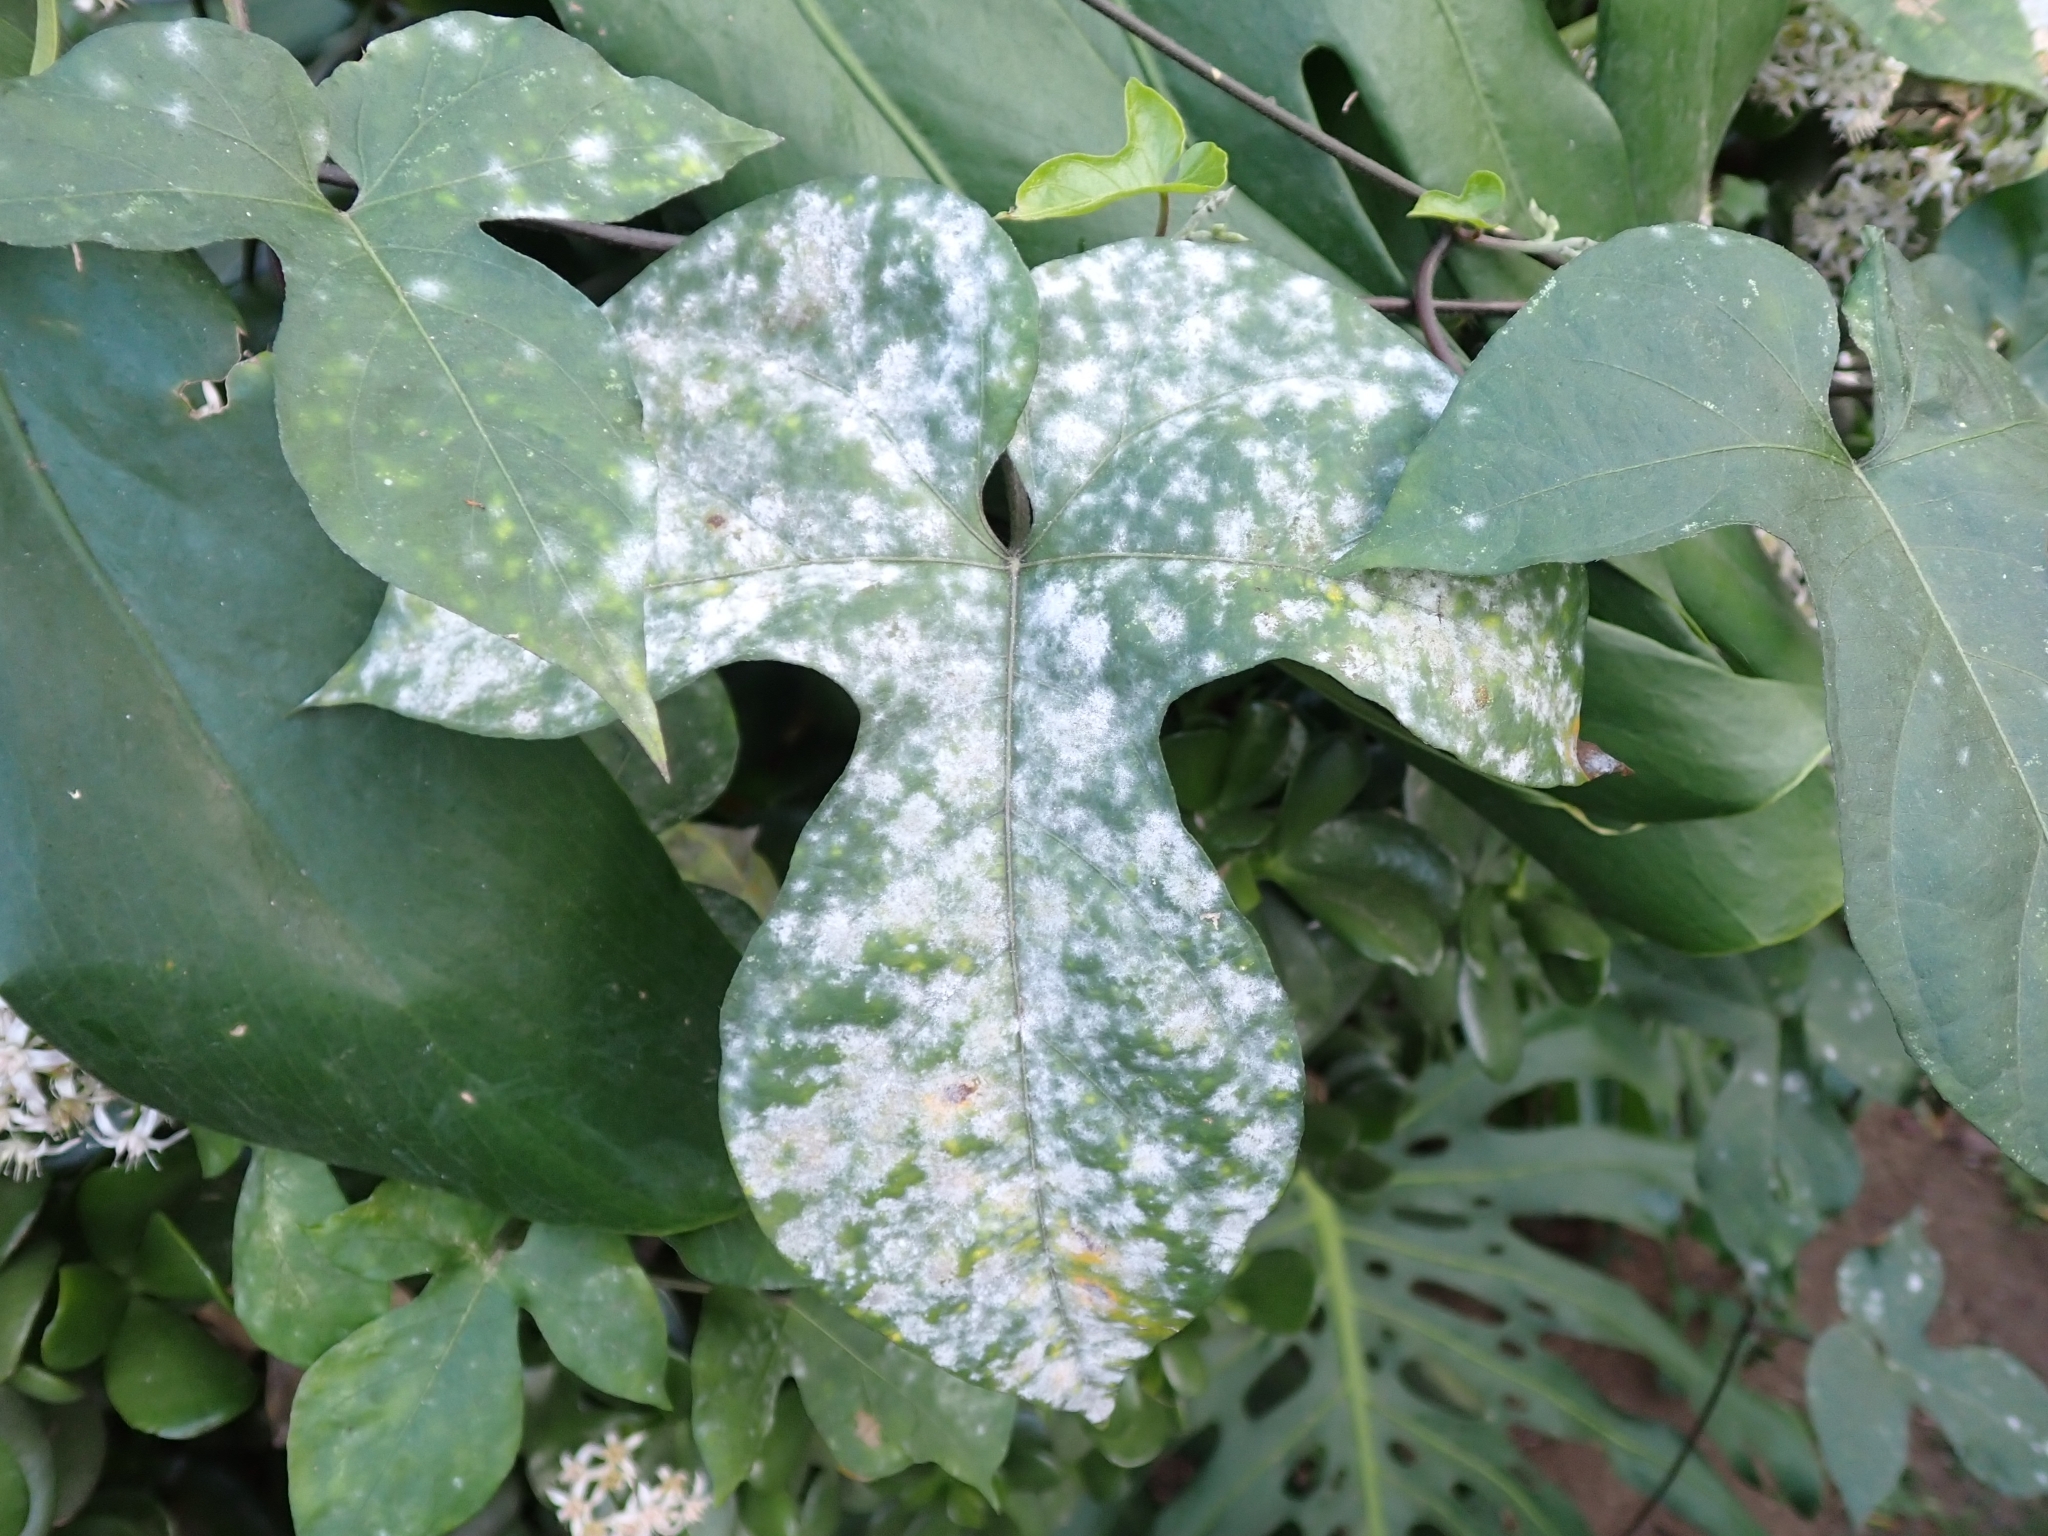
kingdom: Fungi
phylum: Ascomycota
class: Leotiomycetes
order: Helotiales
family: Erysiphaceae
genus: Erysiphe
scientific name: Erysiphe convolvuli
